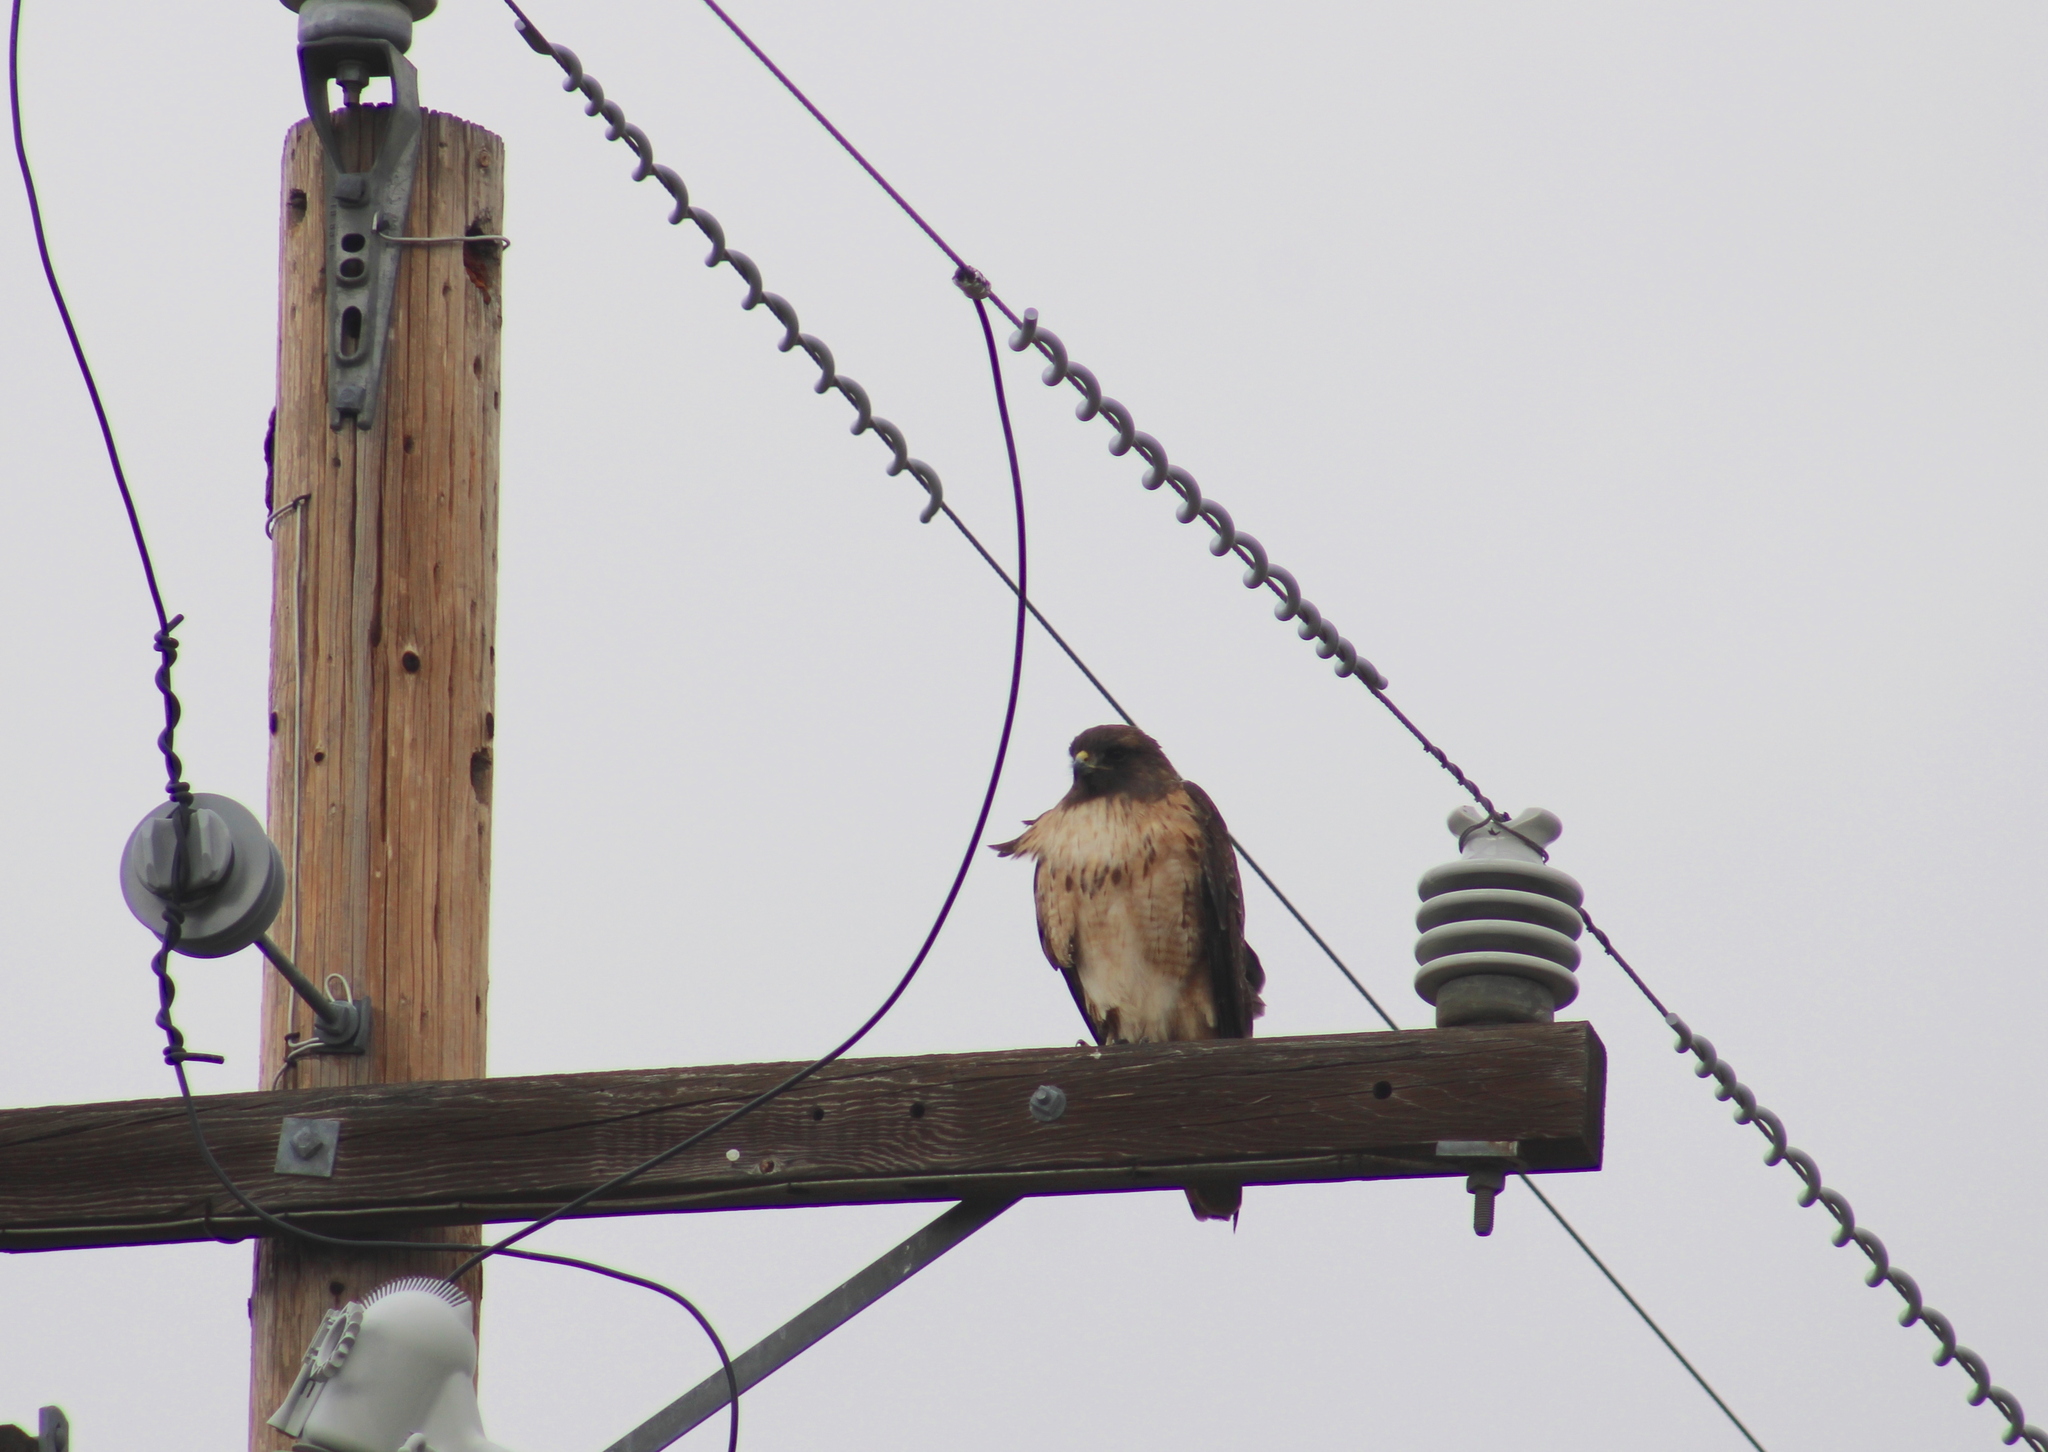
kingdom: Animalia
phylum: Chordata
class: Aves
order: Accipitriformes
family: Accipitridae
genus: Buteo
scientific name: Buteo jamaicensis
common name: Red-tailed hawk
